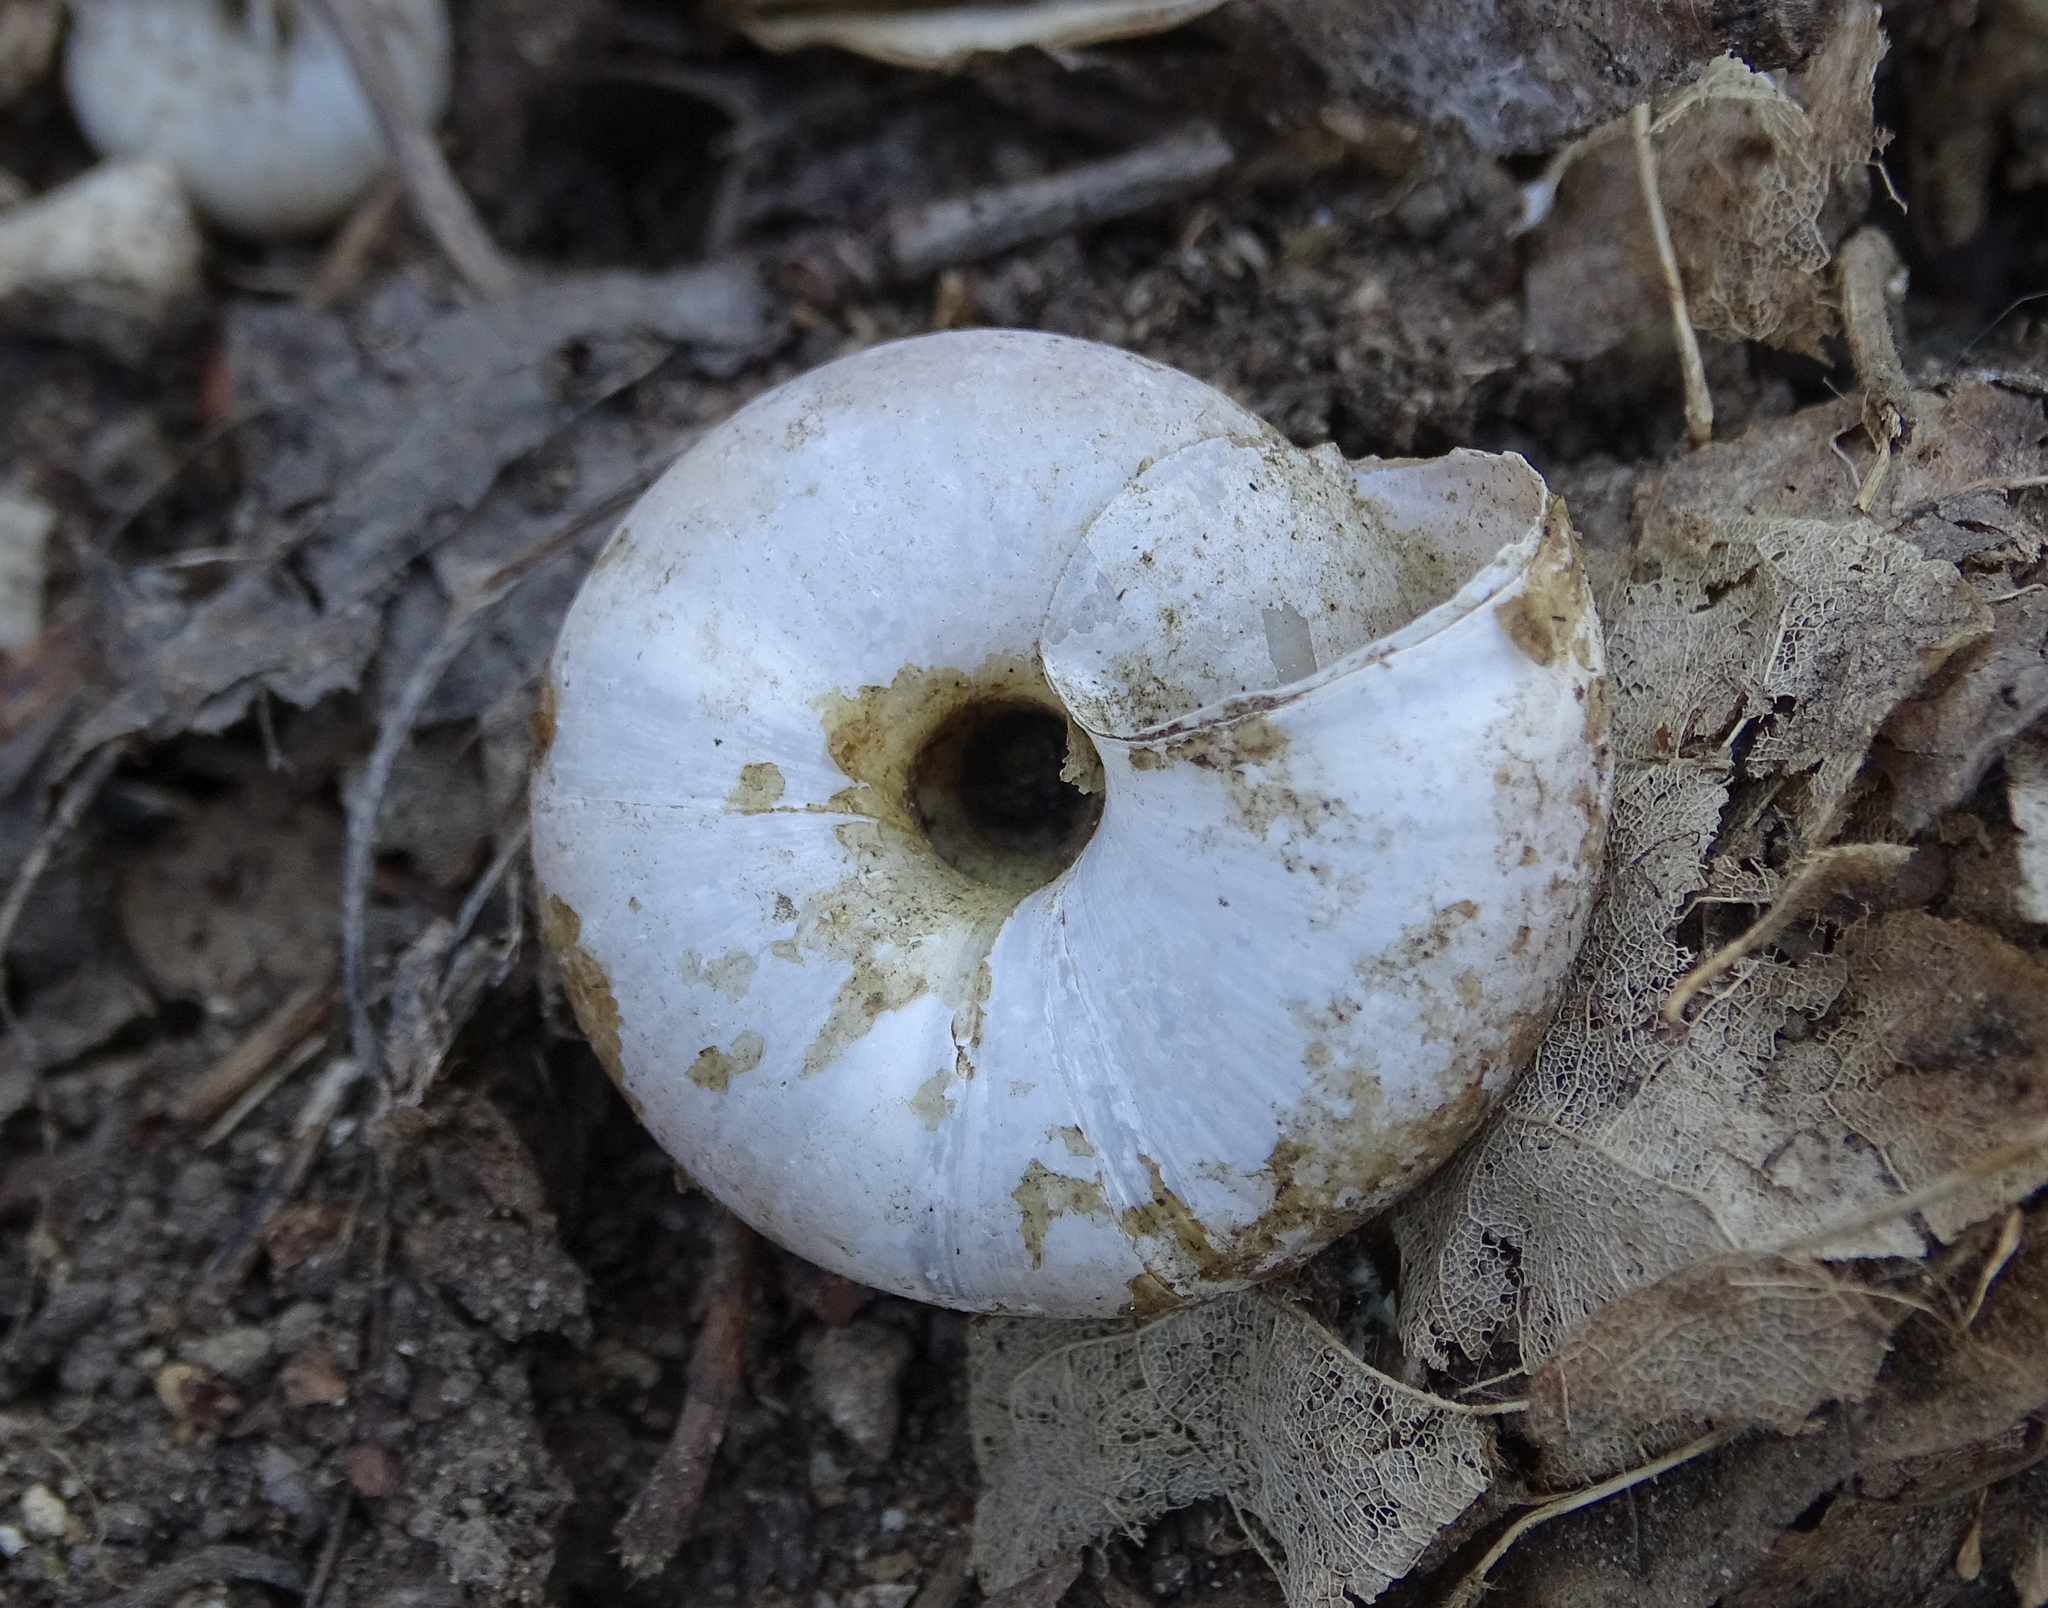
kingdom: Animalia
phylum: Mollusca
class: Gastropoda
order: Stylommatophora
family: Zonitidae
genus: Aegopis
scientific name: Aegopis verticillus
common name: Giant glass snail
